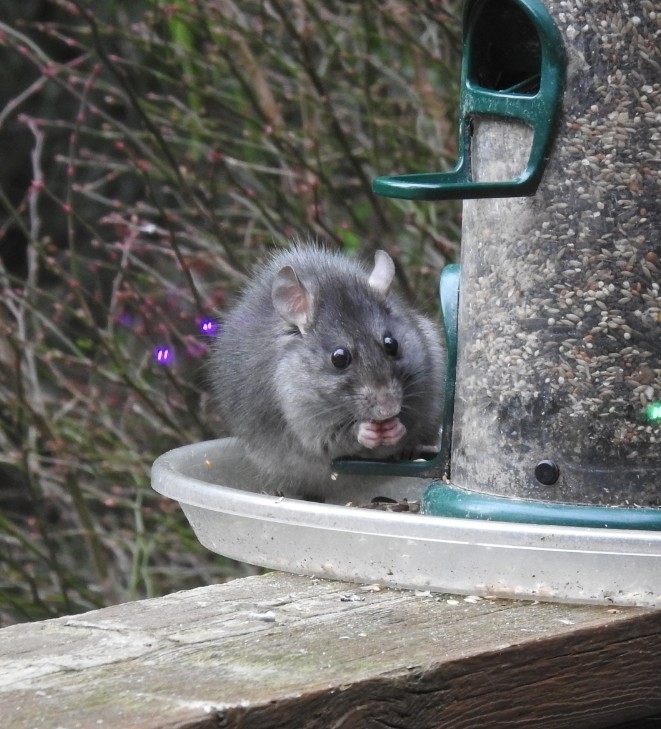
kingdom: Animalia
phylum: Chordata
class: Mammalia
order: Rodentia
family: Muridae
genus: Rattus
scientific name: Rattus rattus
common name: Black rat
